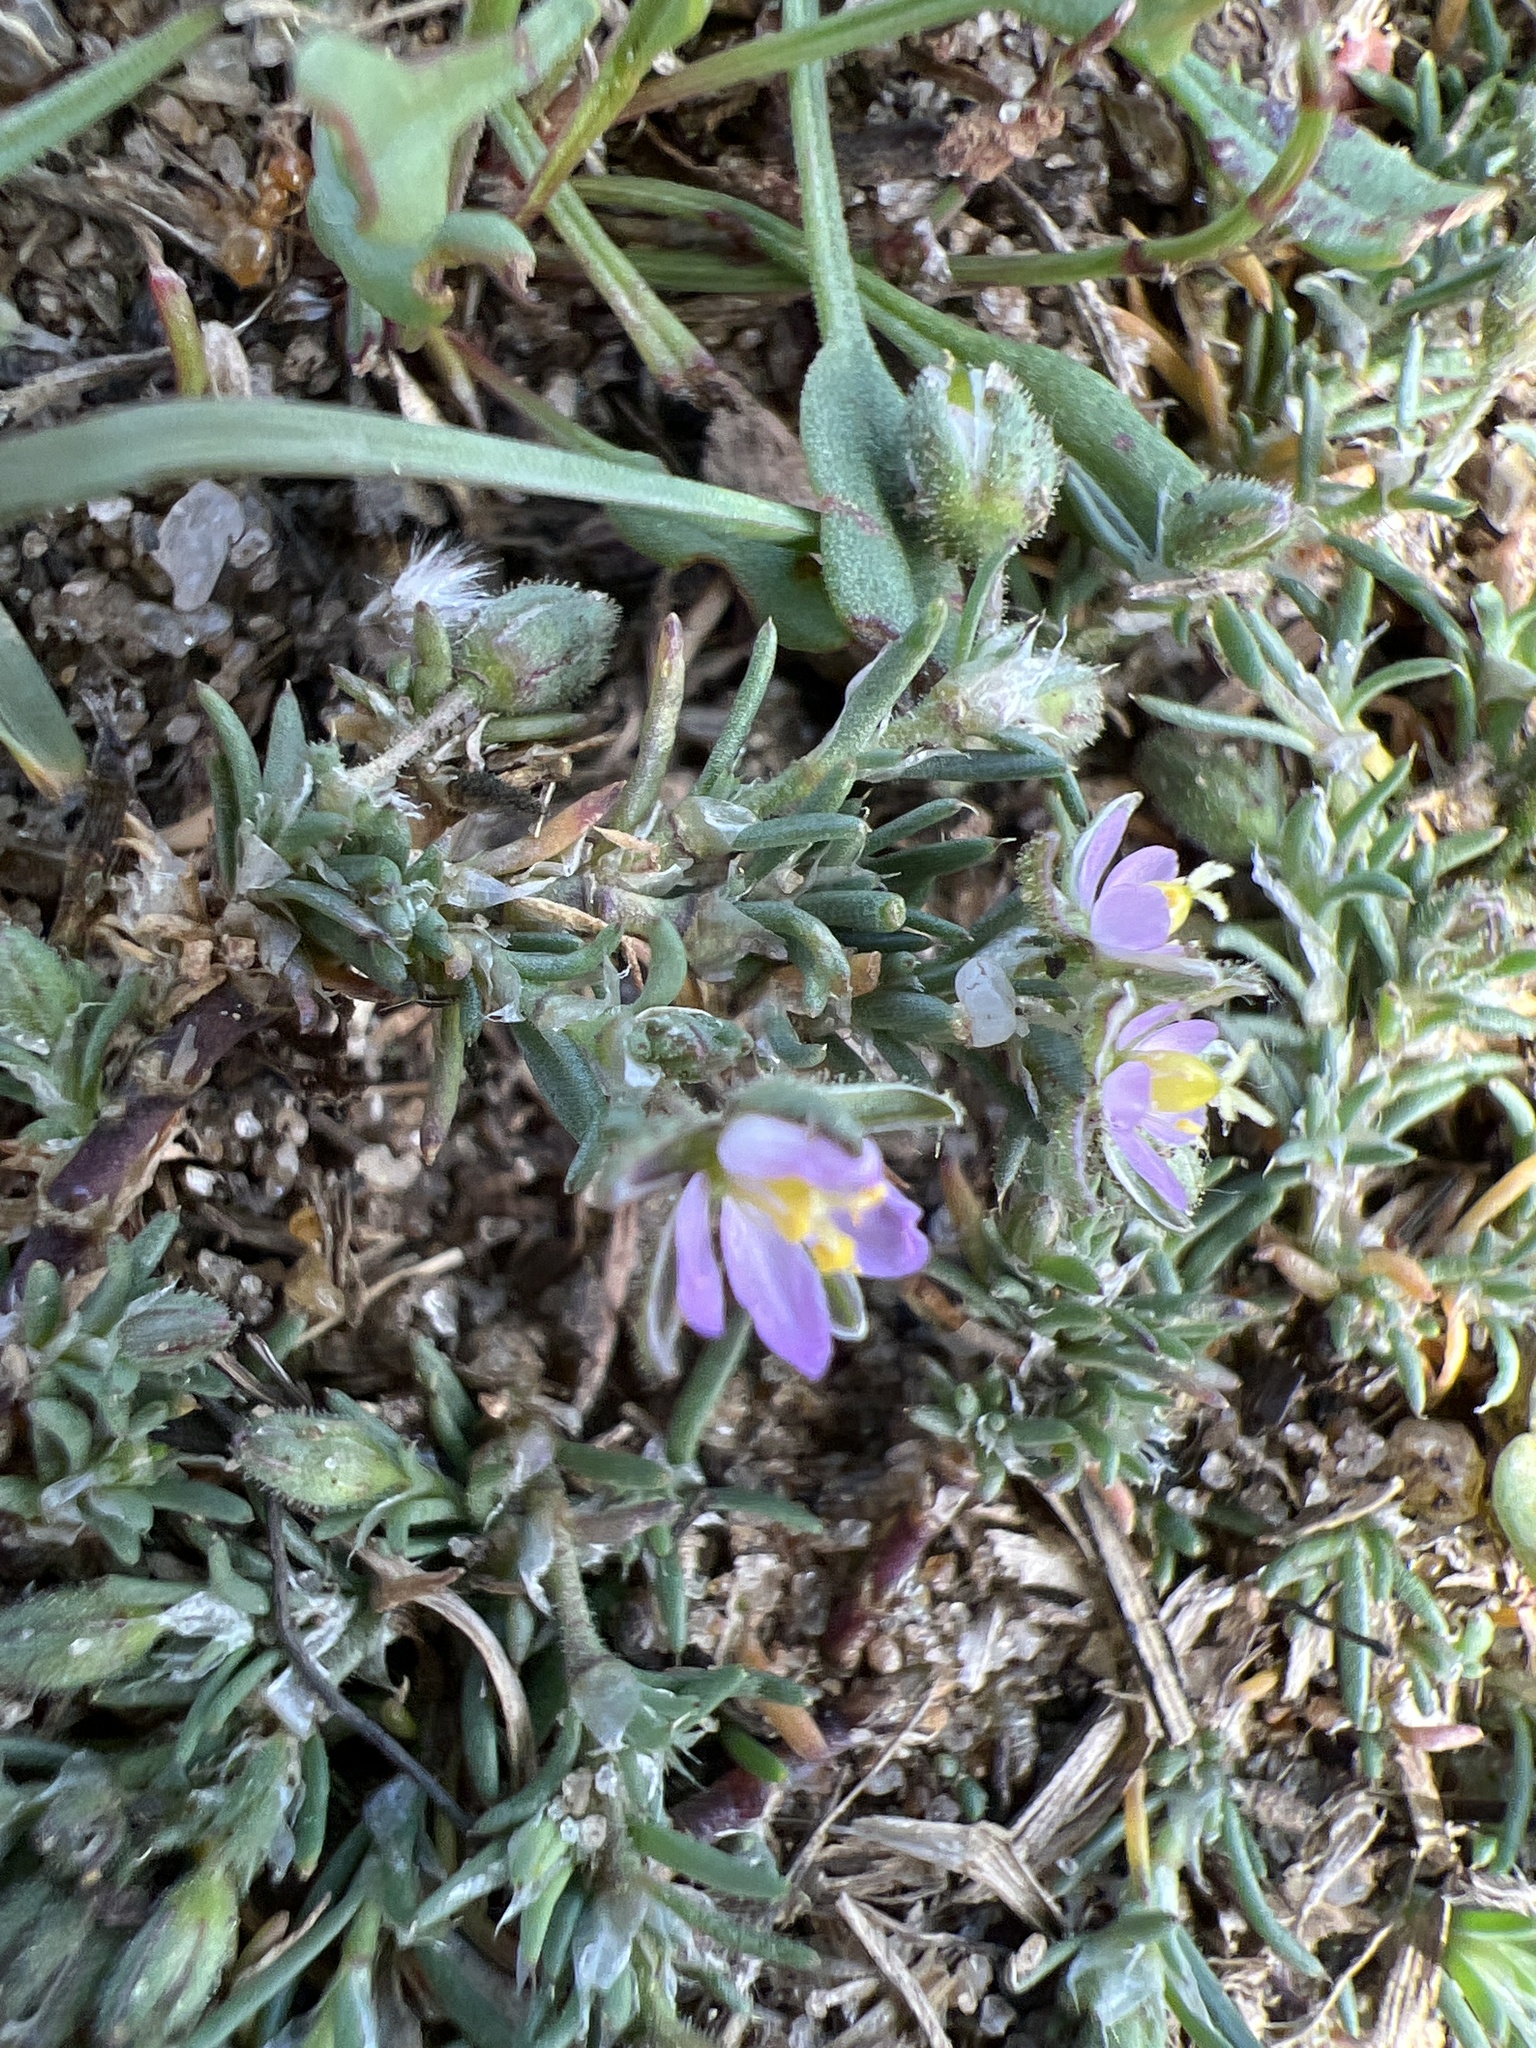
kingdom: Plantae
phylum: Tracheophyta
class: Magnoliopsida
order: Caryophyllales
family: Caryophyllaceae
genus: Spergularia
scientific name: Spergularia rubra
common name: Red sand-spurrey
